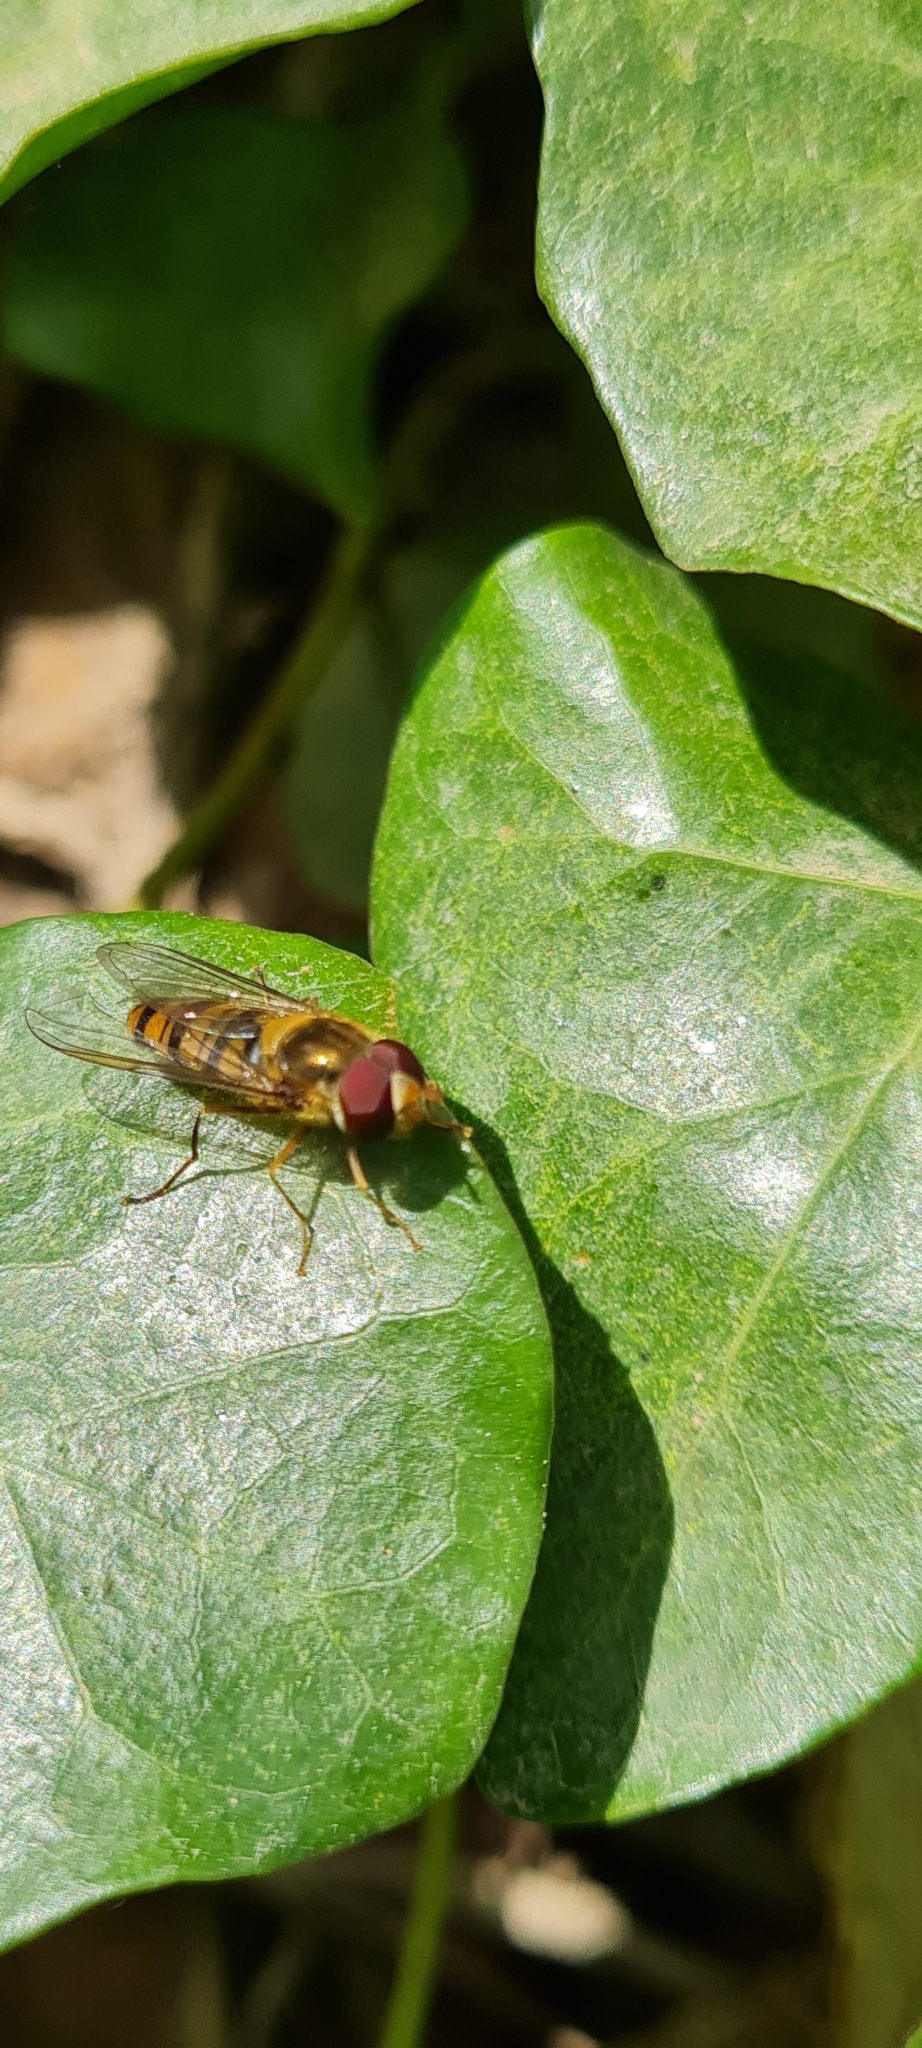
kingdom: Animalia
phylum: Arthropoda
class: Insecta
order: Diptera
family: Syrphidae
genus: Episyrphus
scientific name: Episyrphus balteatus
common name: Marmalade hoverfly
